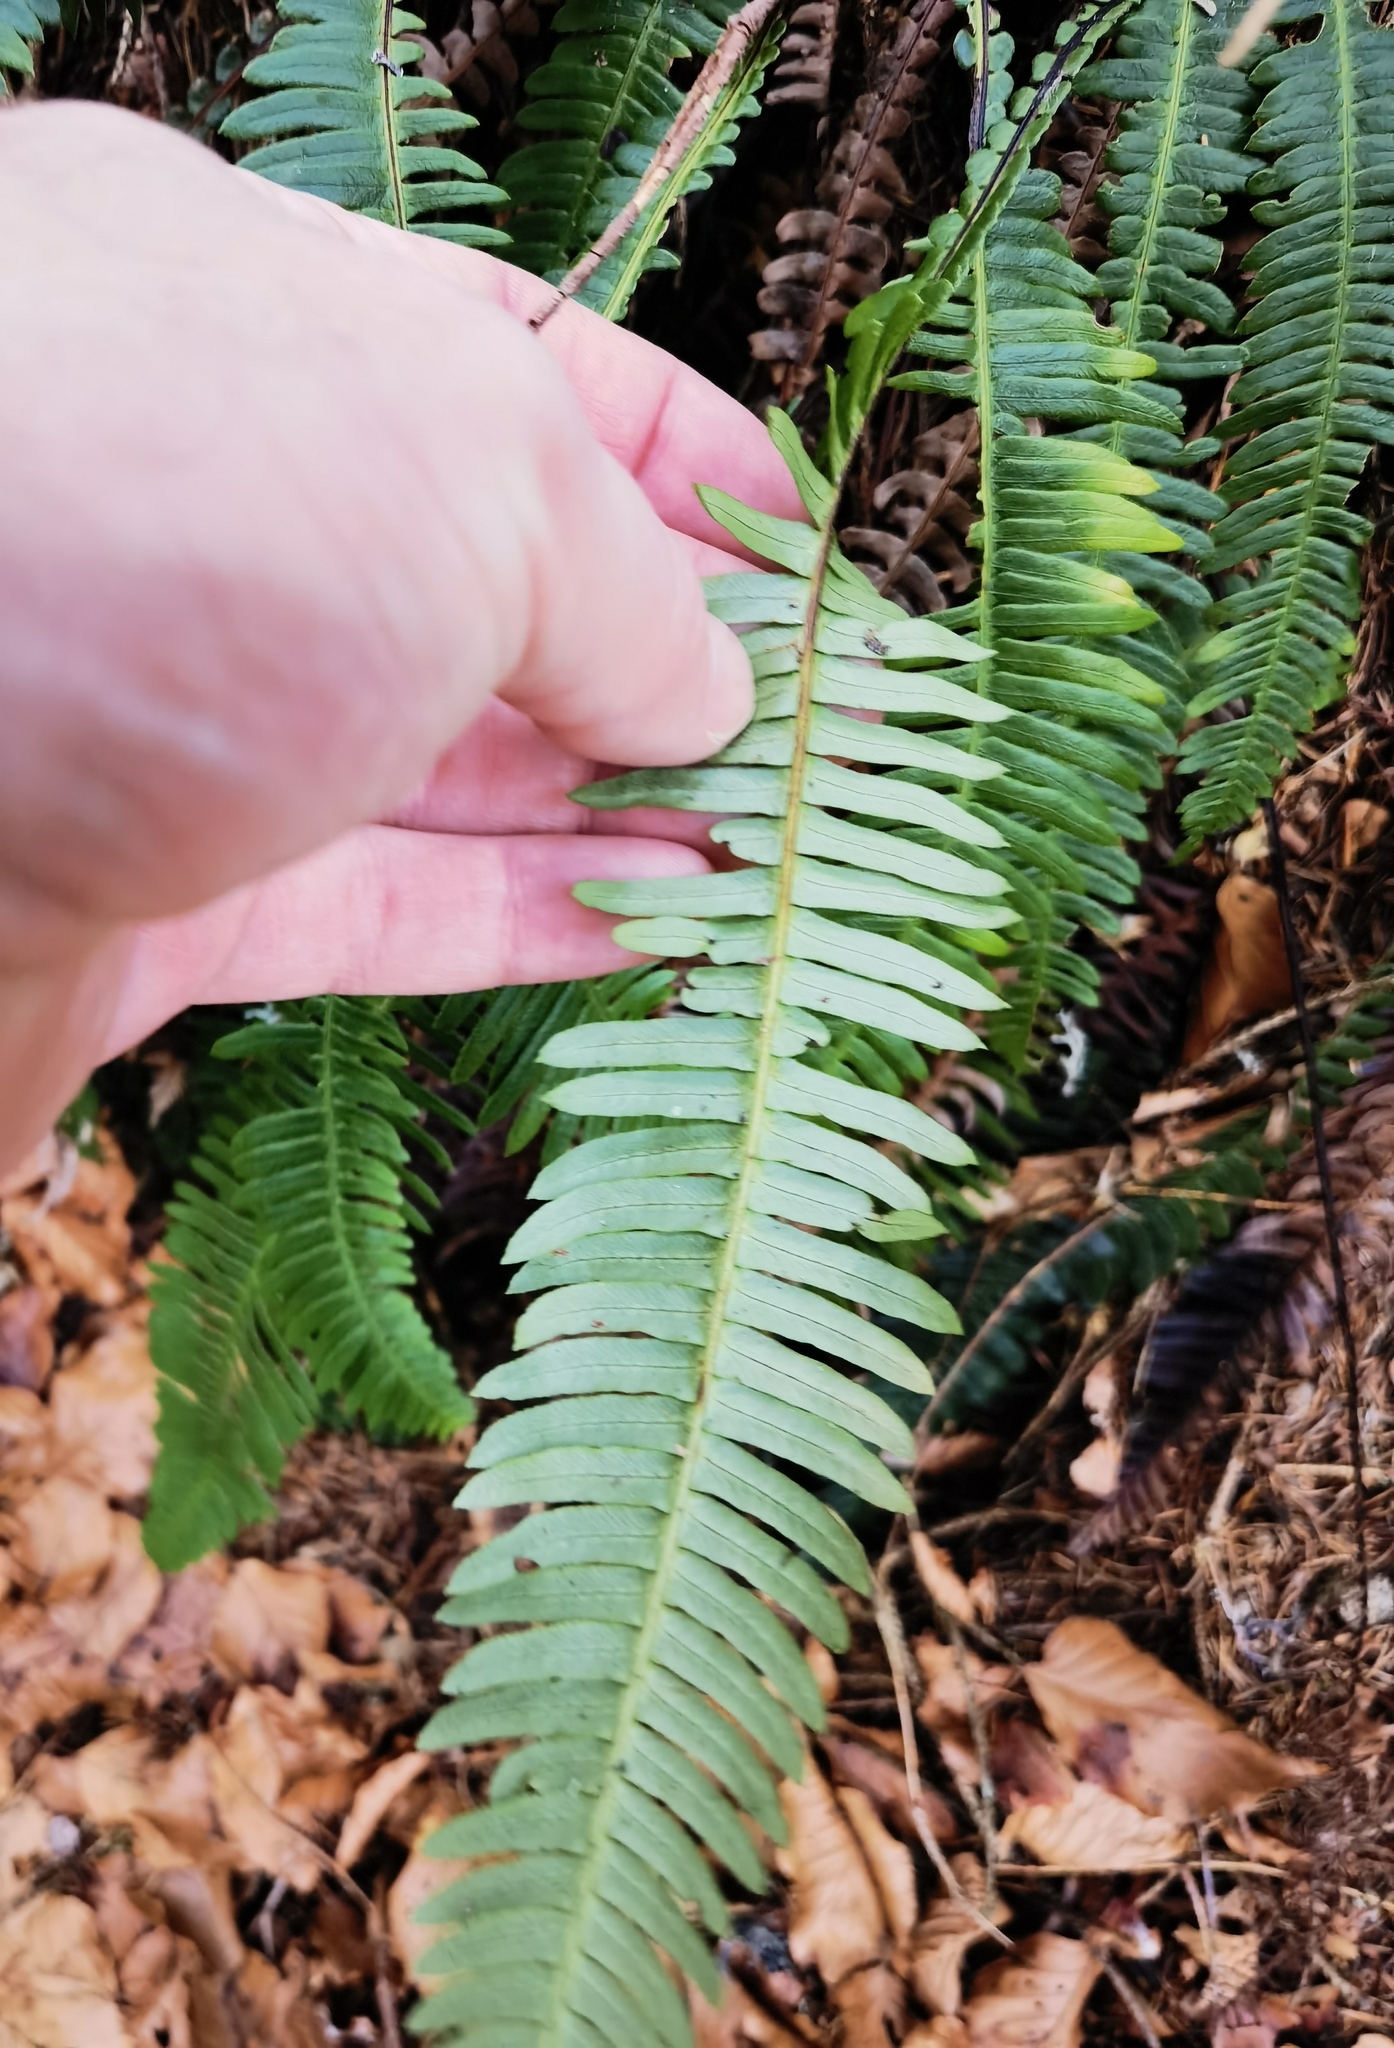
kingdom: Plantae
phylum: Tracheophyta
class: Polypodiopsida
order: Polypodiales
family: Blechnaceae
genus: Struthiopteris
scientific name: Struthiopteris spicant
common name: Deer fern
